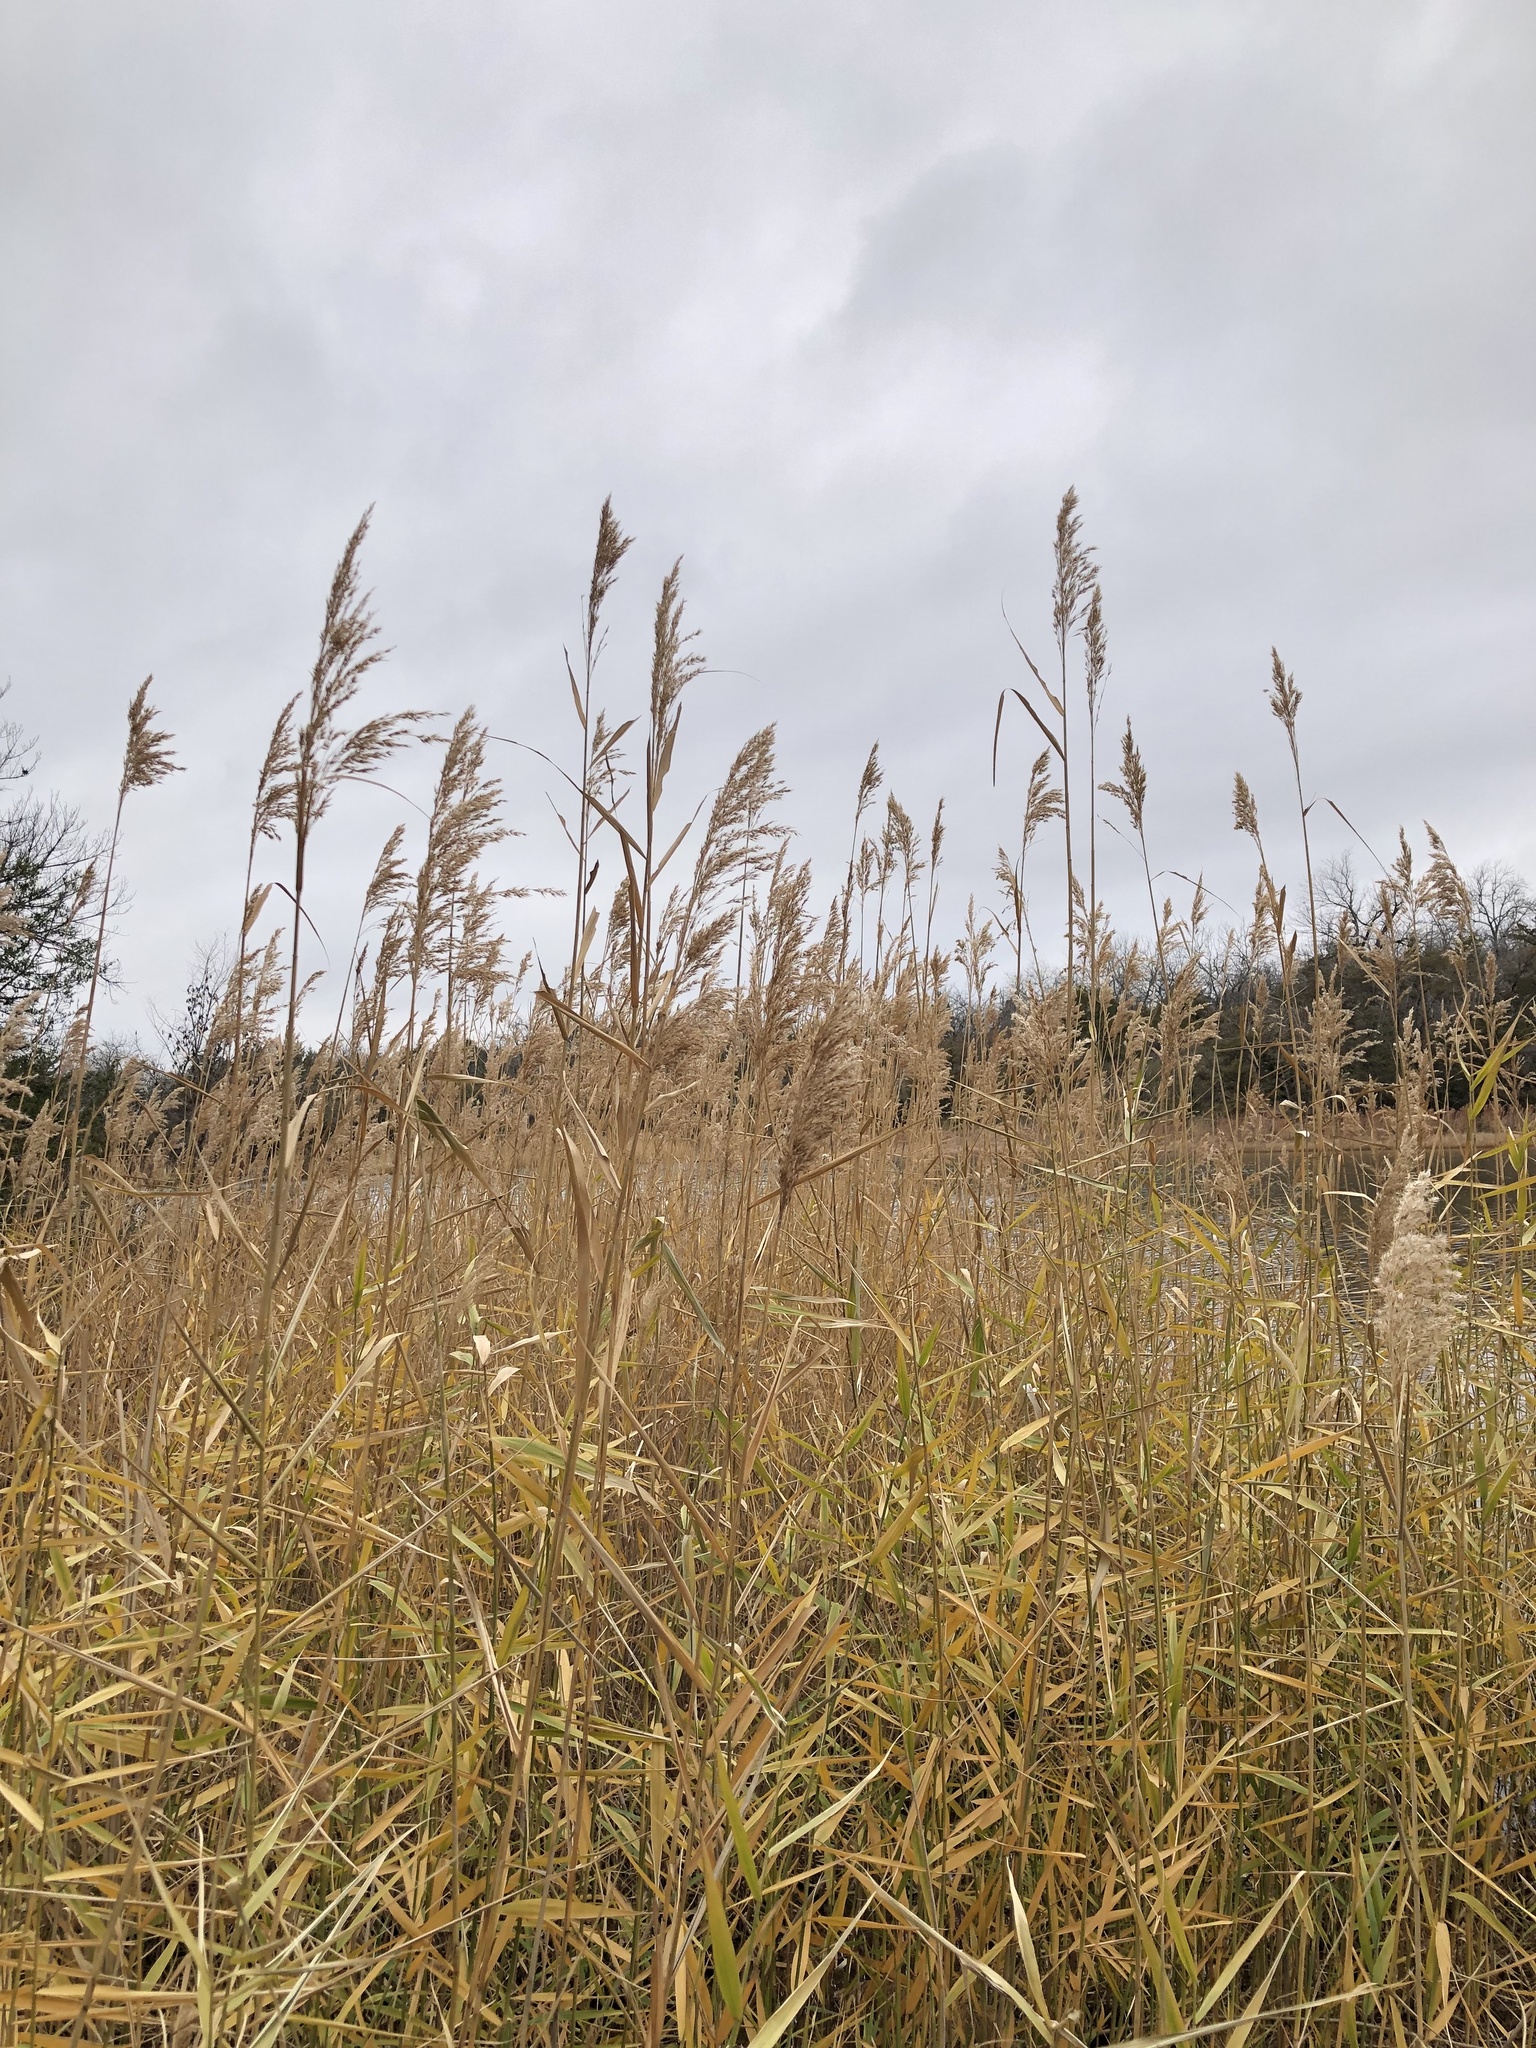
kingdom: Plantae
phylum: Tracheophyta
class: Liliopsida
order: Poales
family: Poaceae
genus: Phragmites
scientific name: Phragmites australis
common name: Common reed
